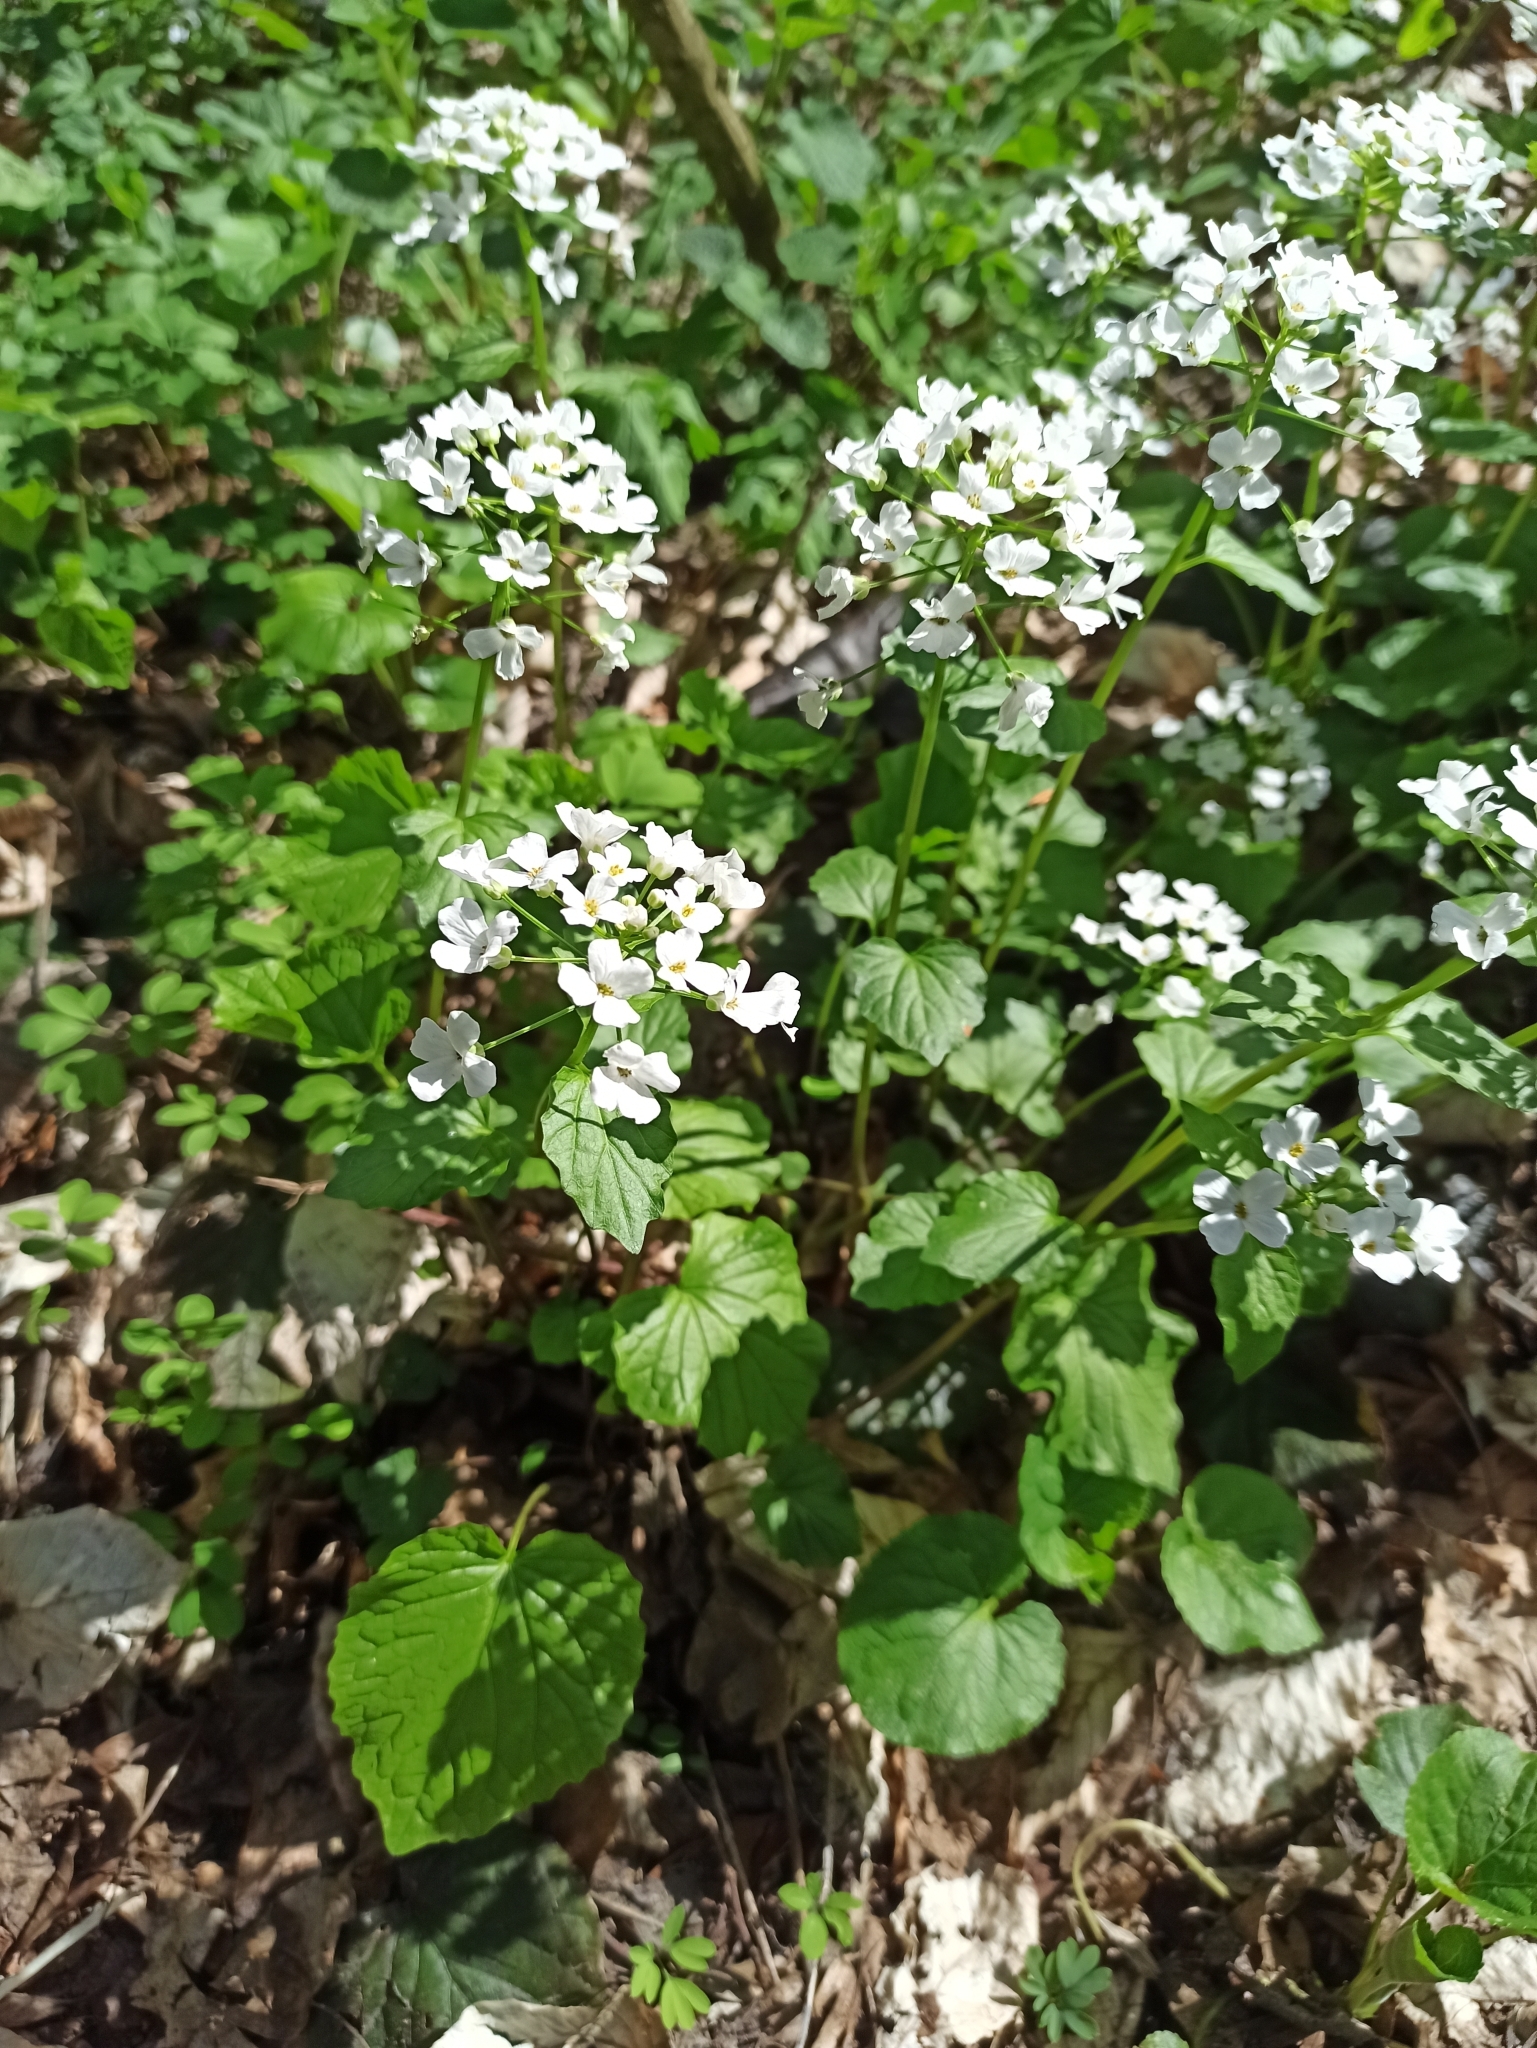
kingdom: Plantae
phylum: Tracheophyta
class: Magnoliopsida
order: Brassicales
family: Brassicaceae
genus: Pachyphragma
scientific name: Pachyphragma macrophyllum
